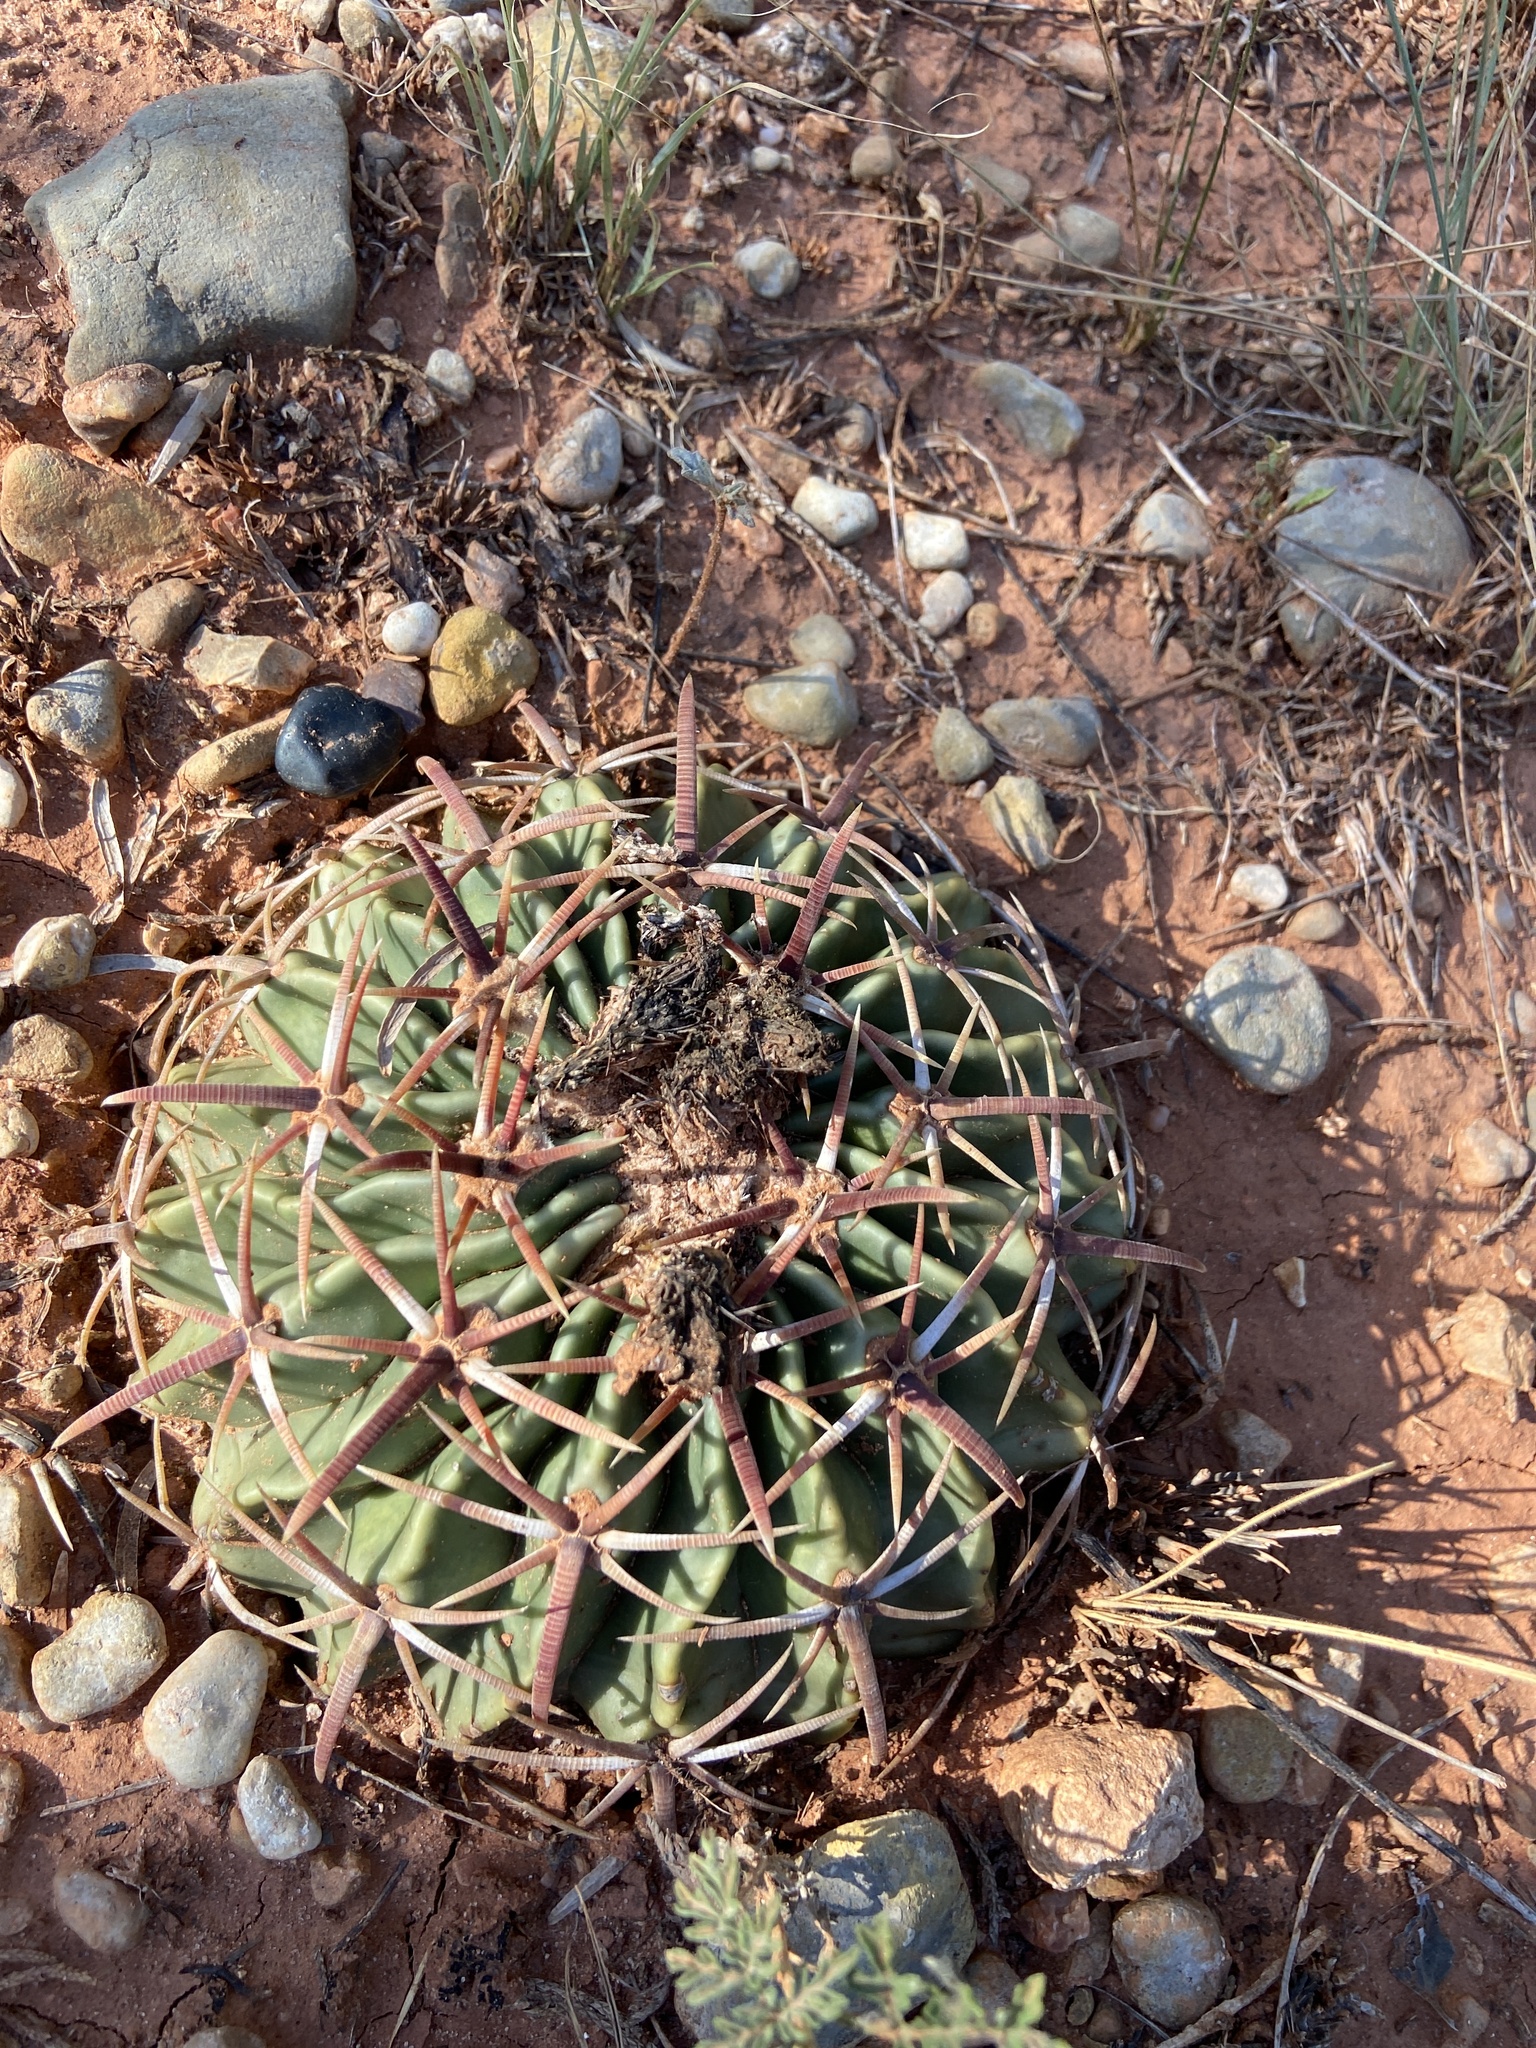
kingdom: Plantae
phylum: Tracheophyta
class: Magnoliopsida
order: Caryophyllales
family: Cactaceae
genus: Echinocactus
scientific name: Echinocactus texensis
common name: Devil's pincushion
